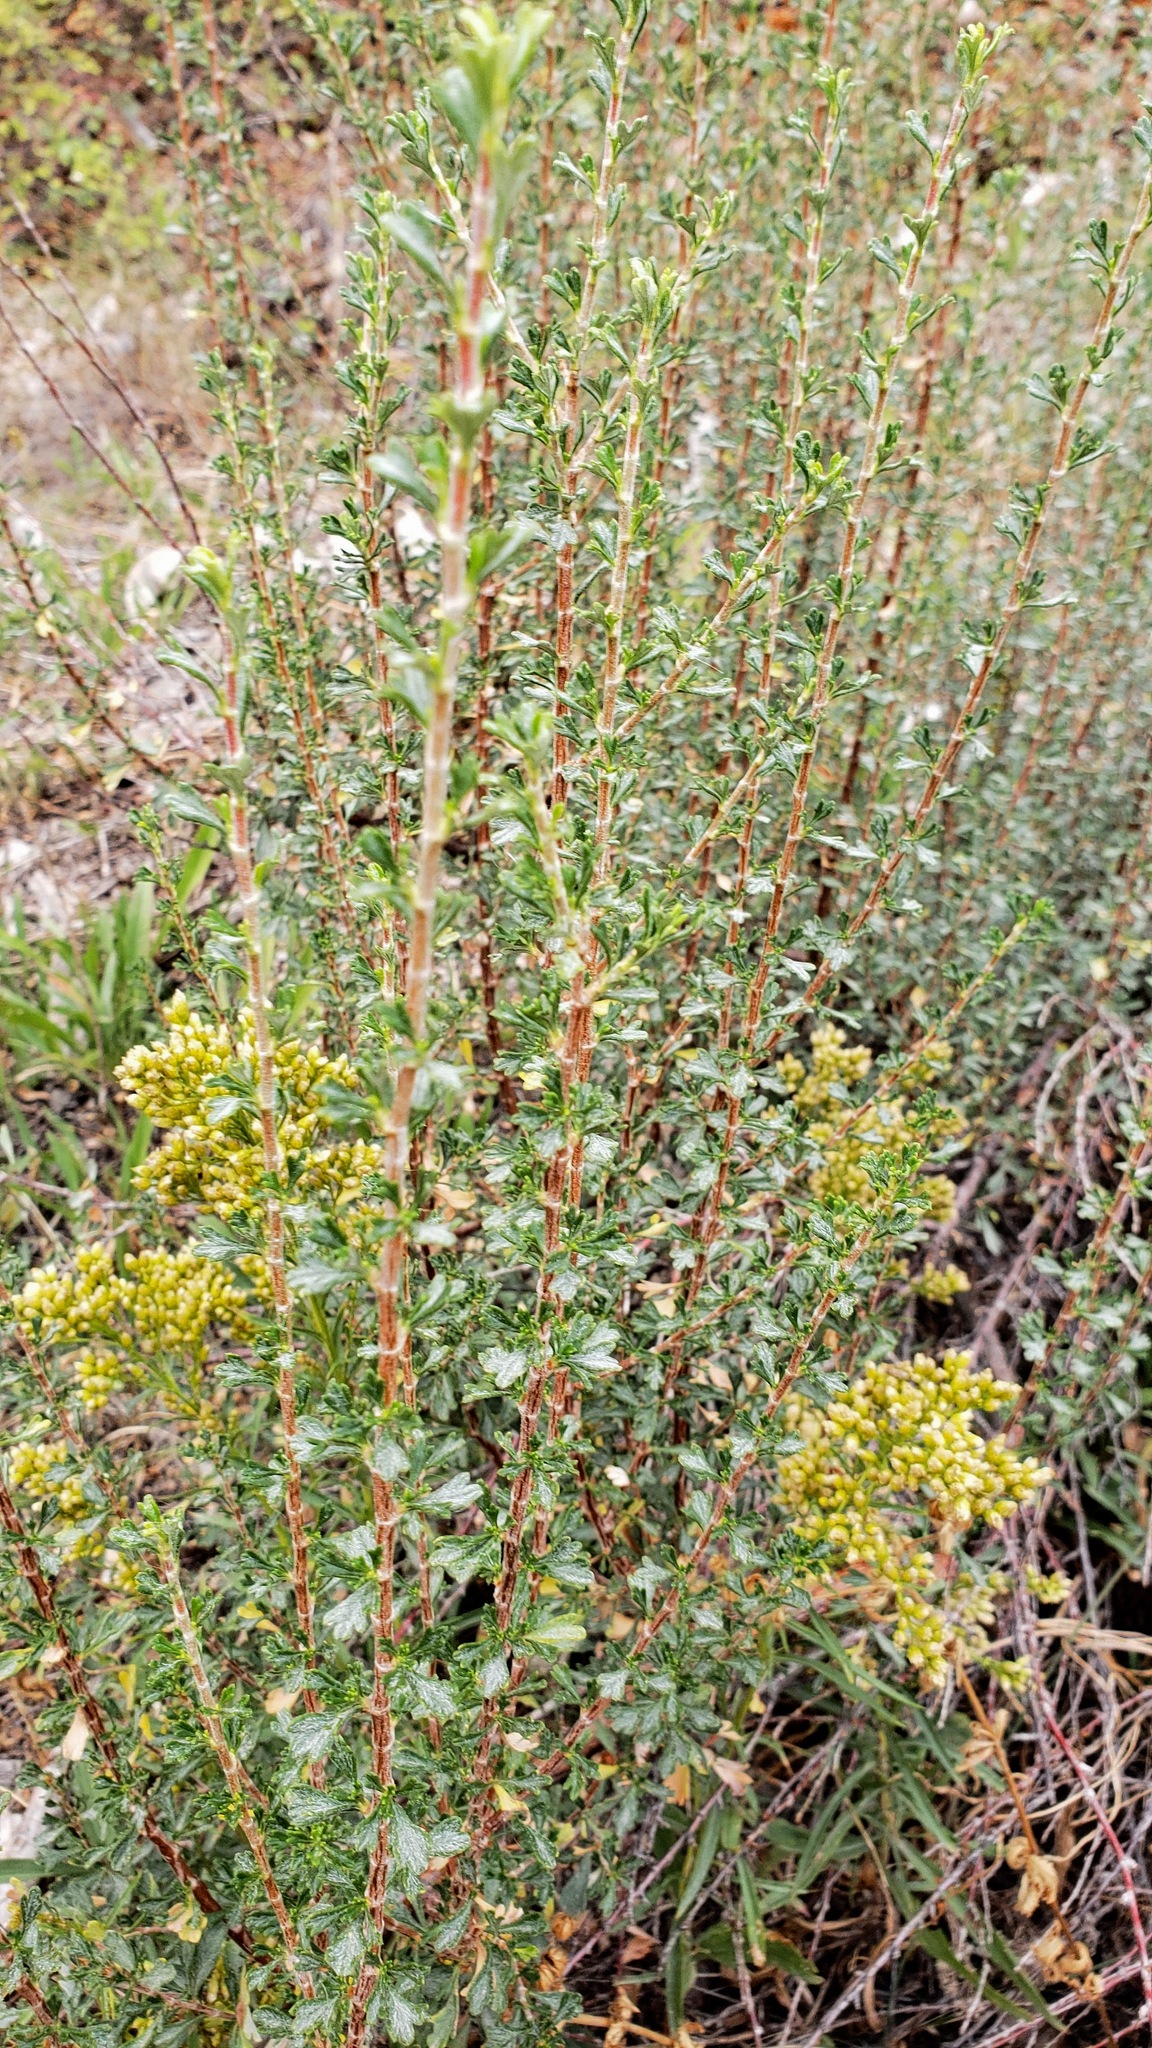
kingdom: Plantae
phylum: Tracheophyta
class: Magnoliopsida
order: Rosales
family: Rosaceae
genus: Purshia
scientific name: Purshia tridentata
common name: Antelope bitterbrush
